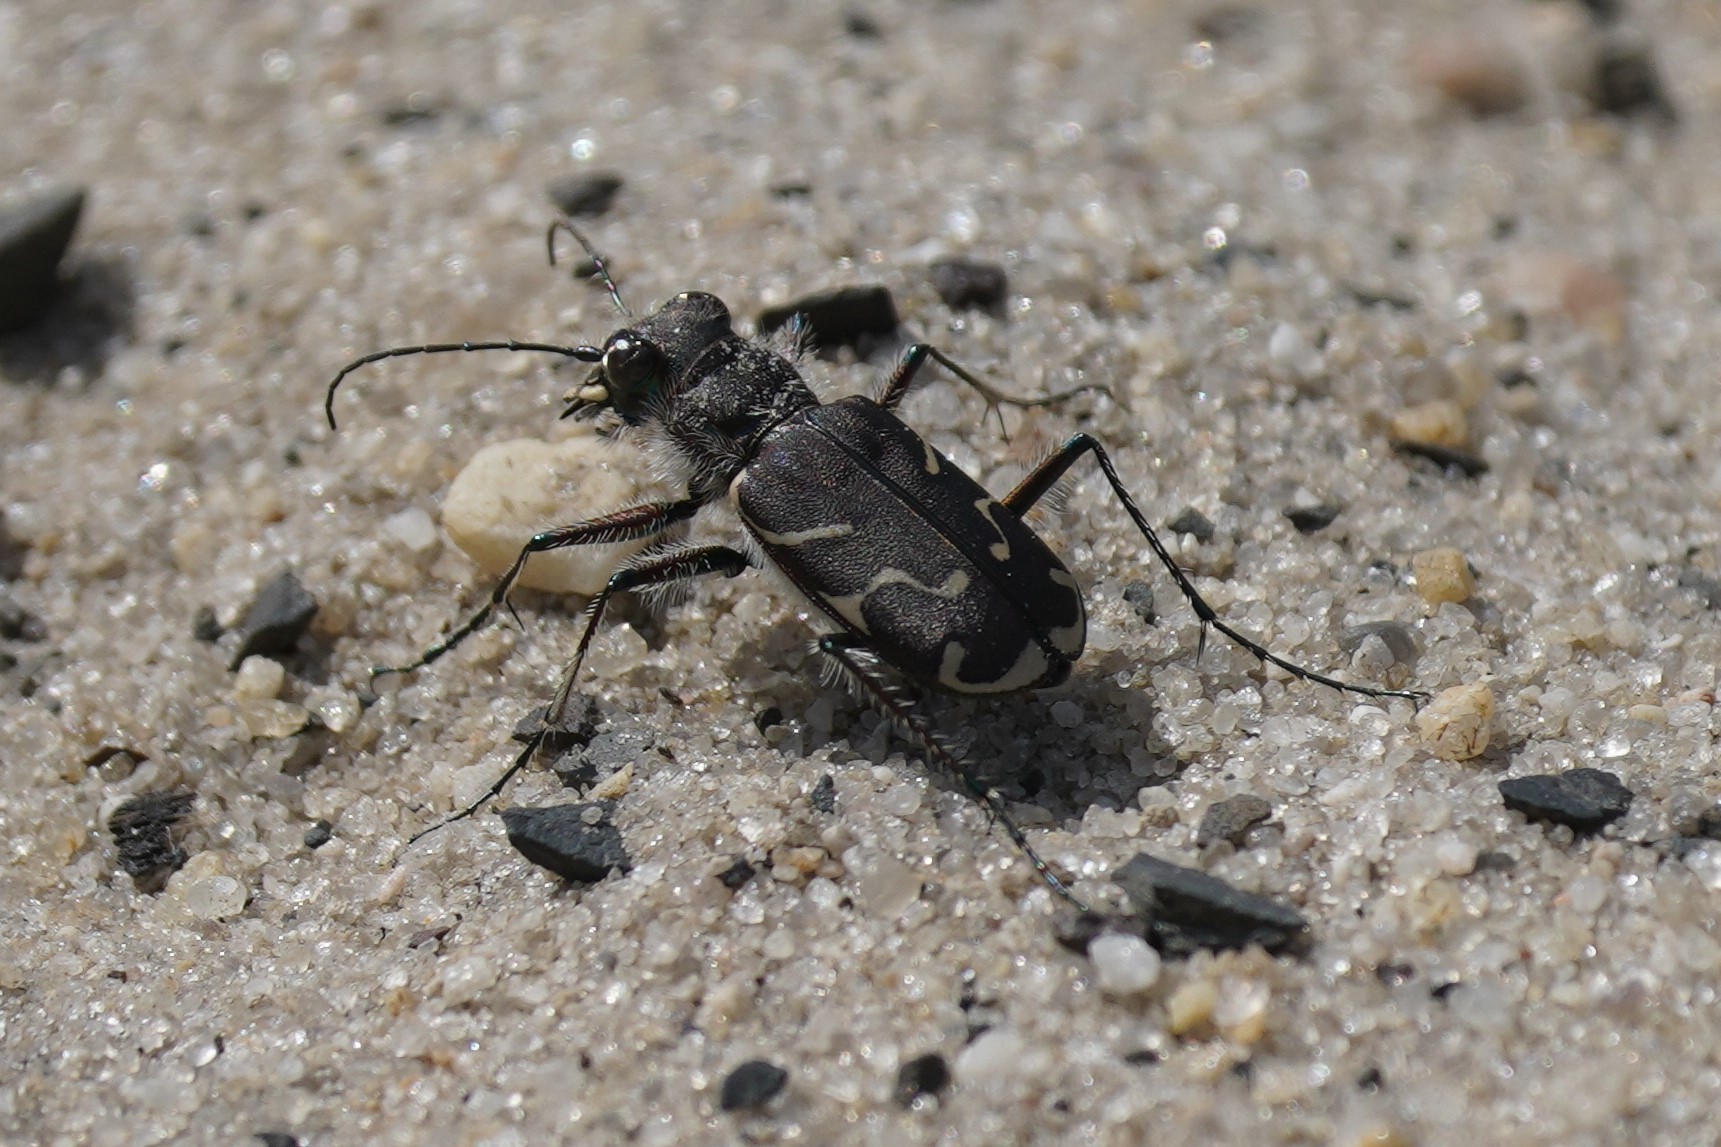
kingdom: Animalia
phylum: Arthropoda
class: Insecta
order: Coleoptera
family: Carabidae
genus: Cicindela
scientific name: Cicindela tranquebarica
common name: Oblique-lined tiger beetle
